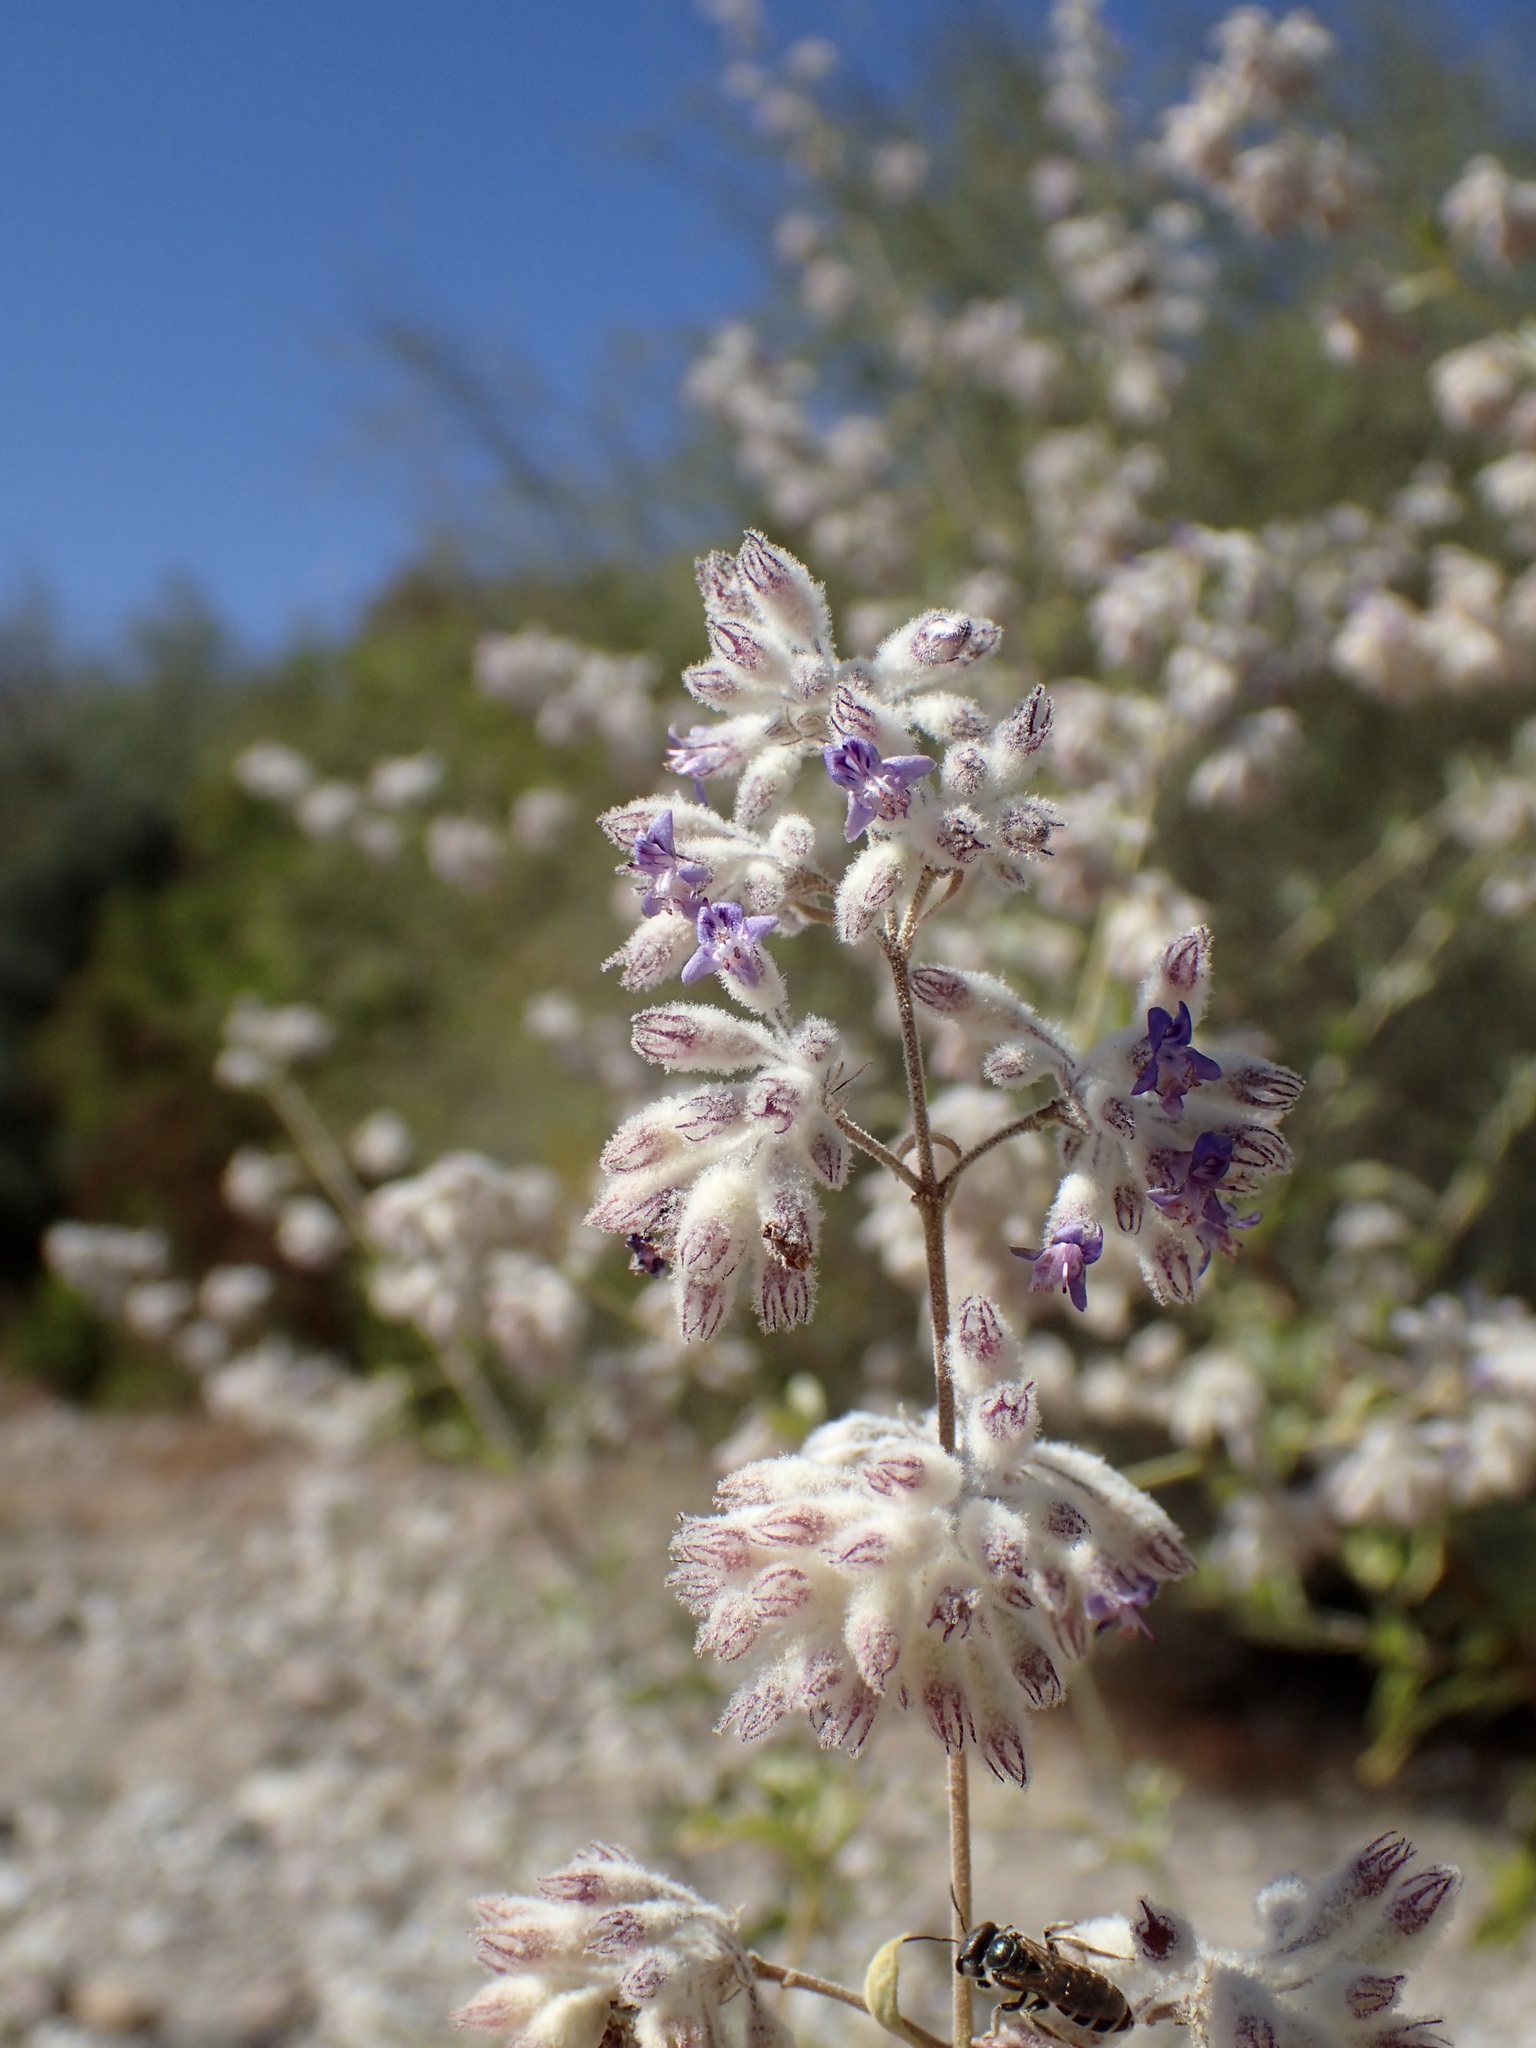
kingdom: Plantae
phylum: Tracheophyta
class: Magnoliopsida
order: Lamiales
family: Lamiaceae
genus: Condea
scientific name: Condea emoryi
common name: Chia
